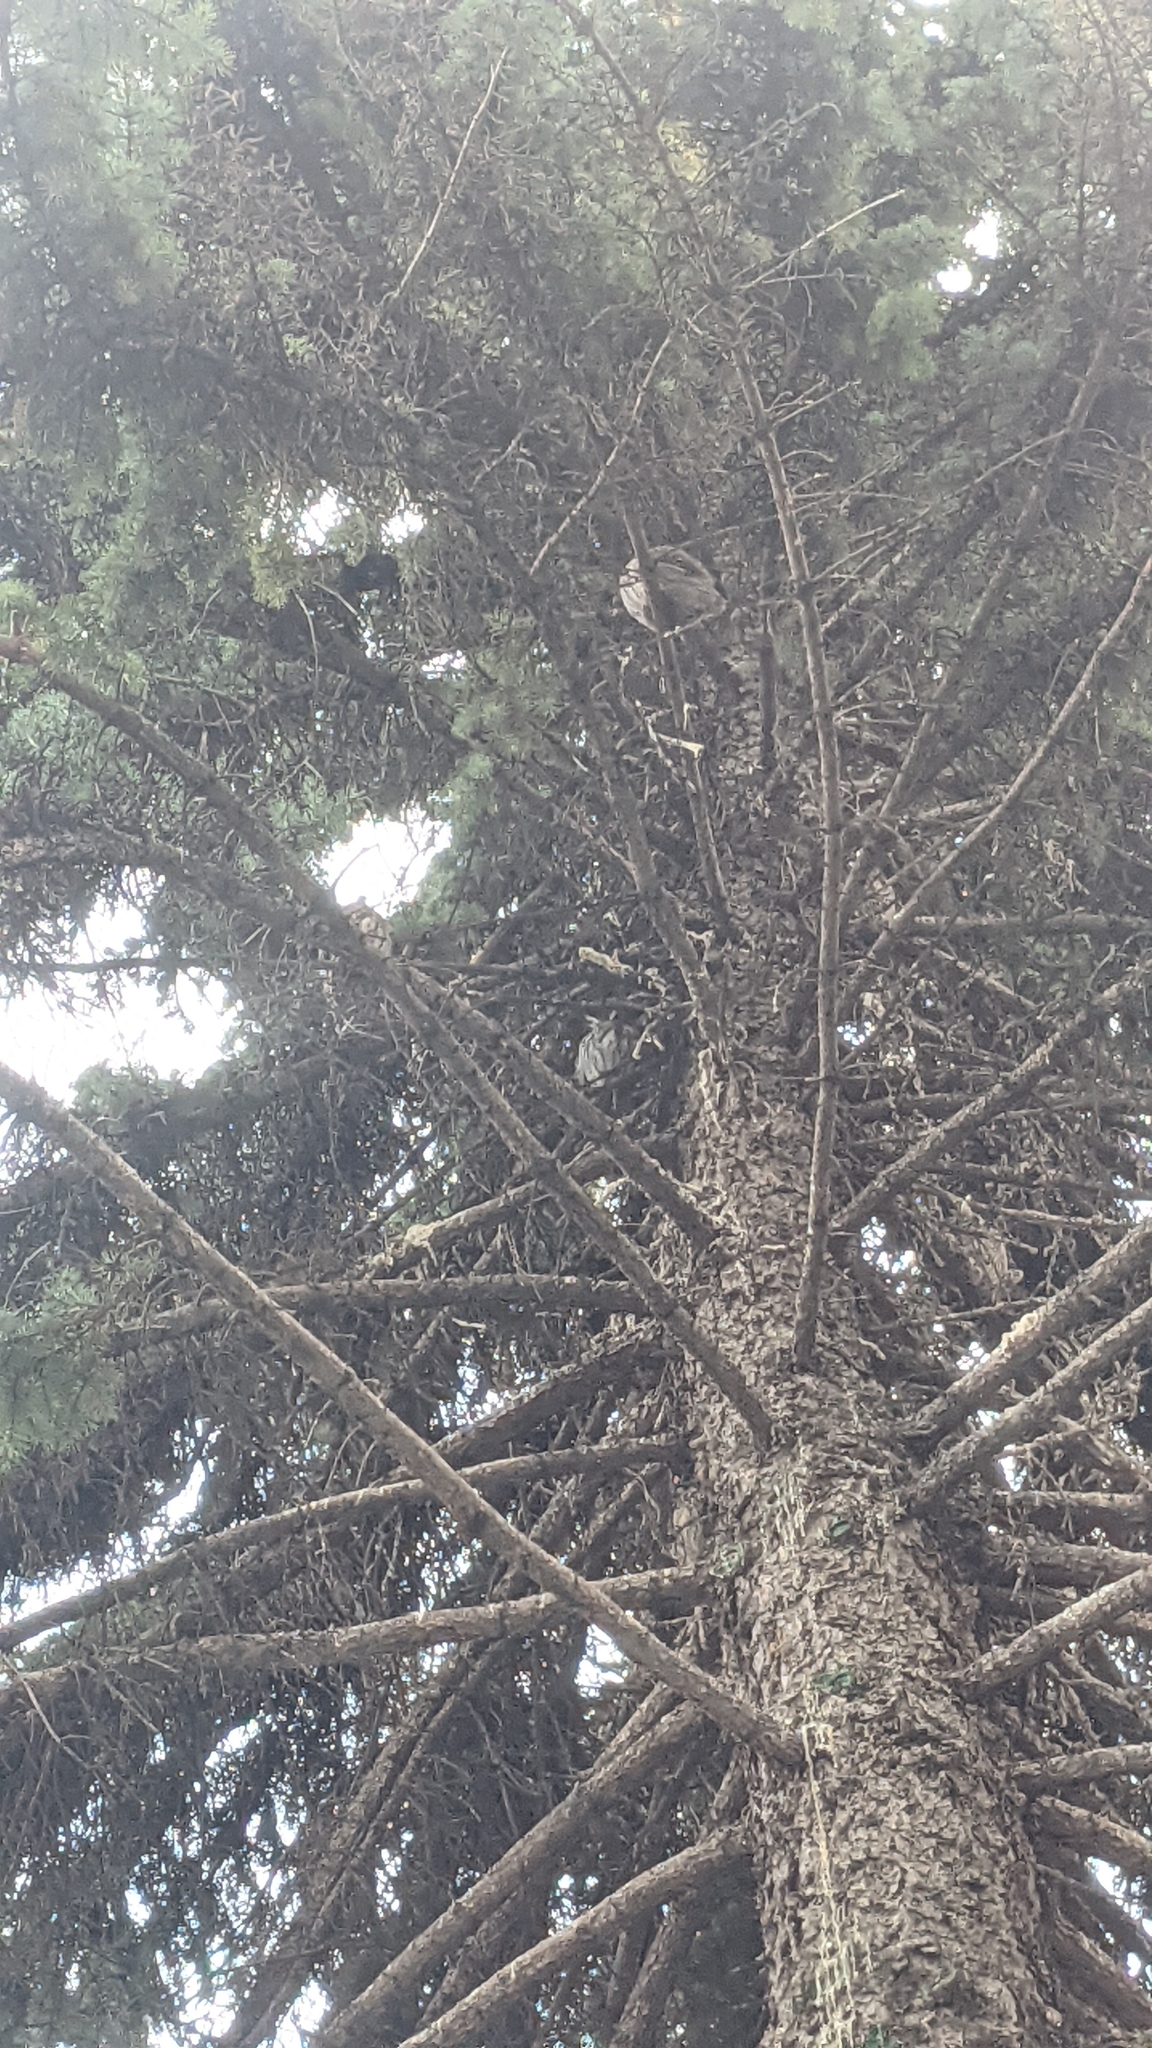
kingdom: Animalia
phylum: Chordata
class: Aves
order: Strigiformes
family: Strigidae
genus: Asio
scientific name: Asio otus
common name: Long-eared owl
